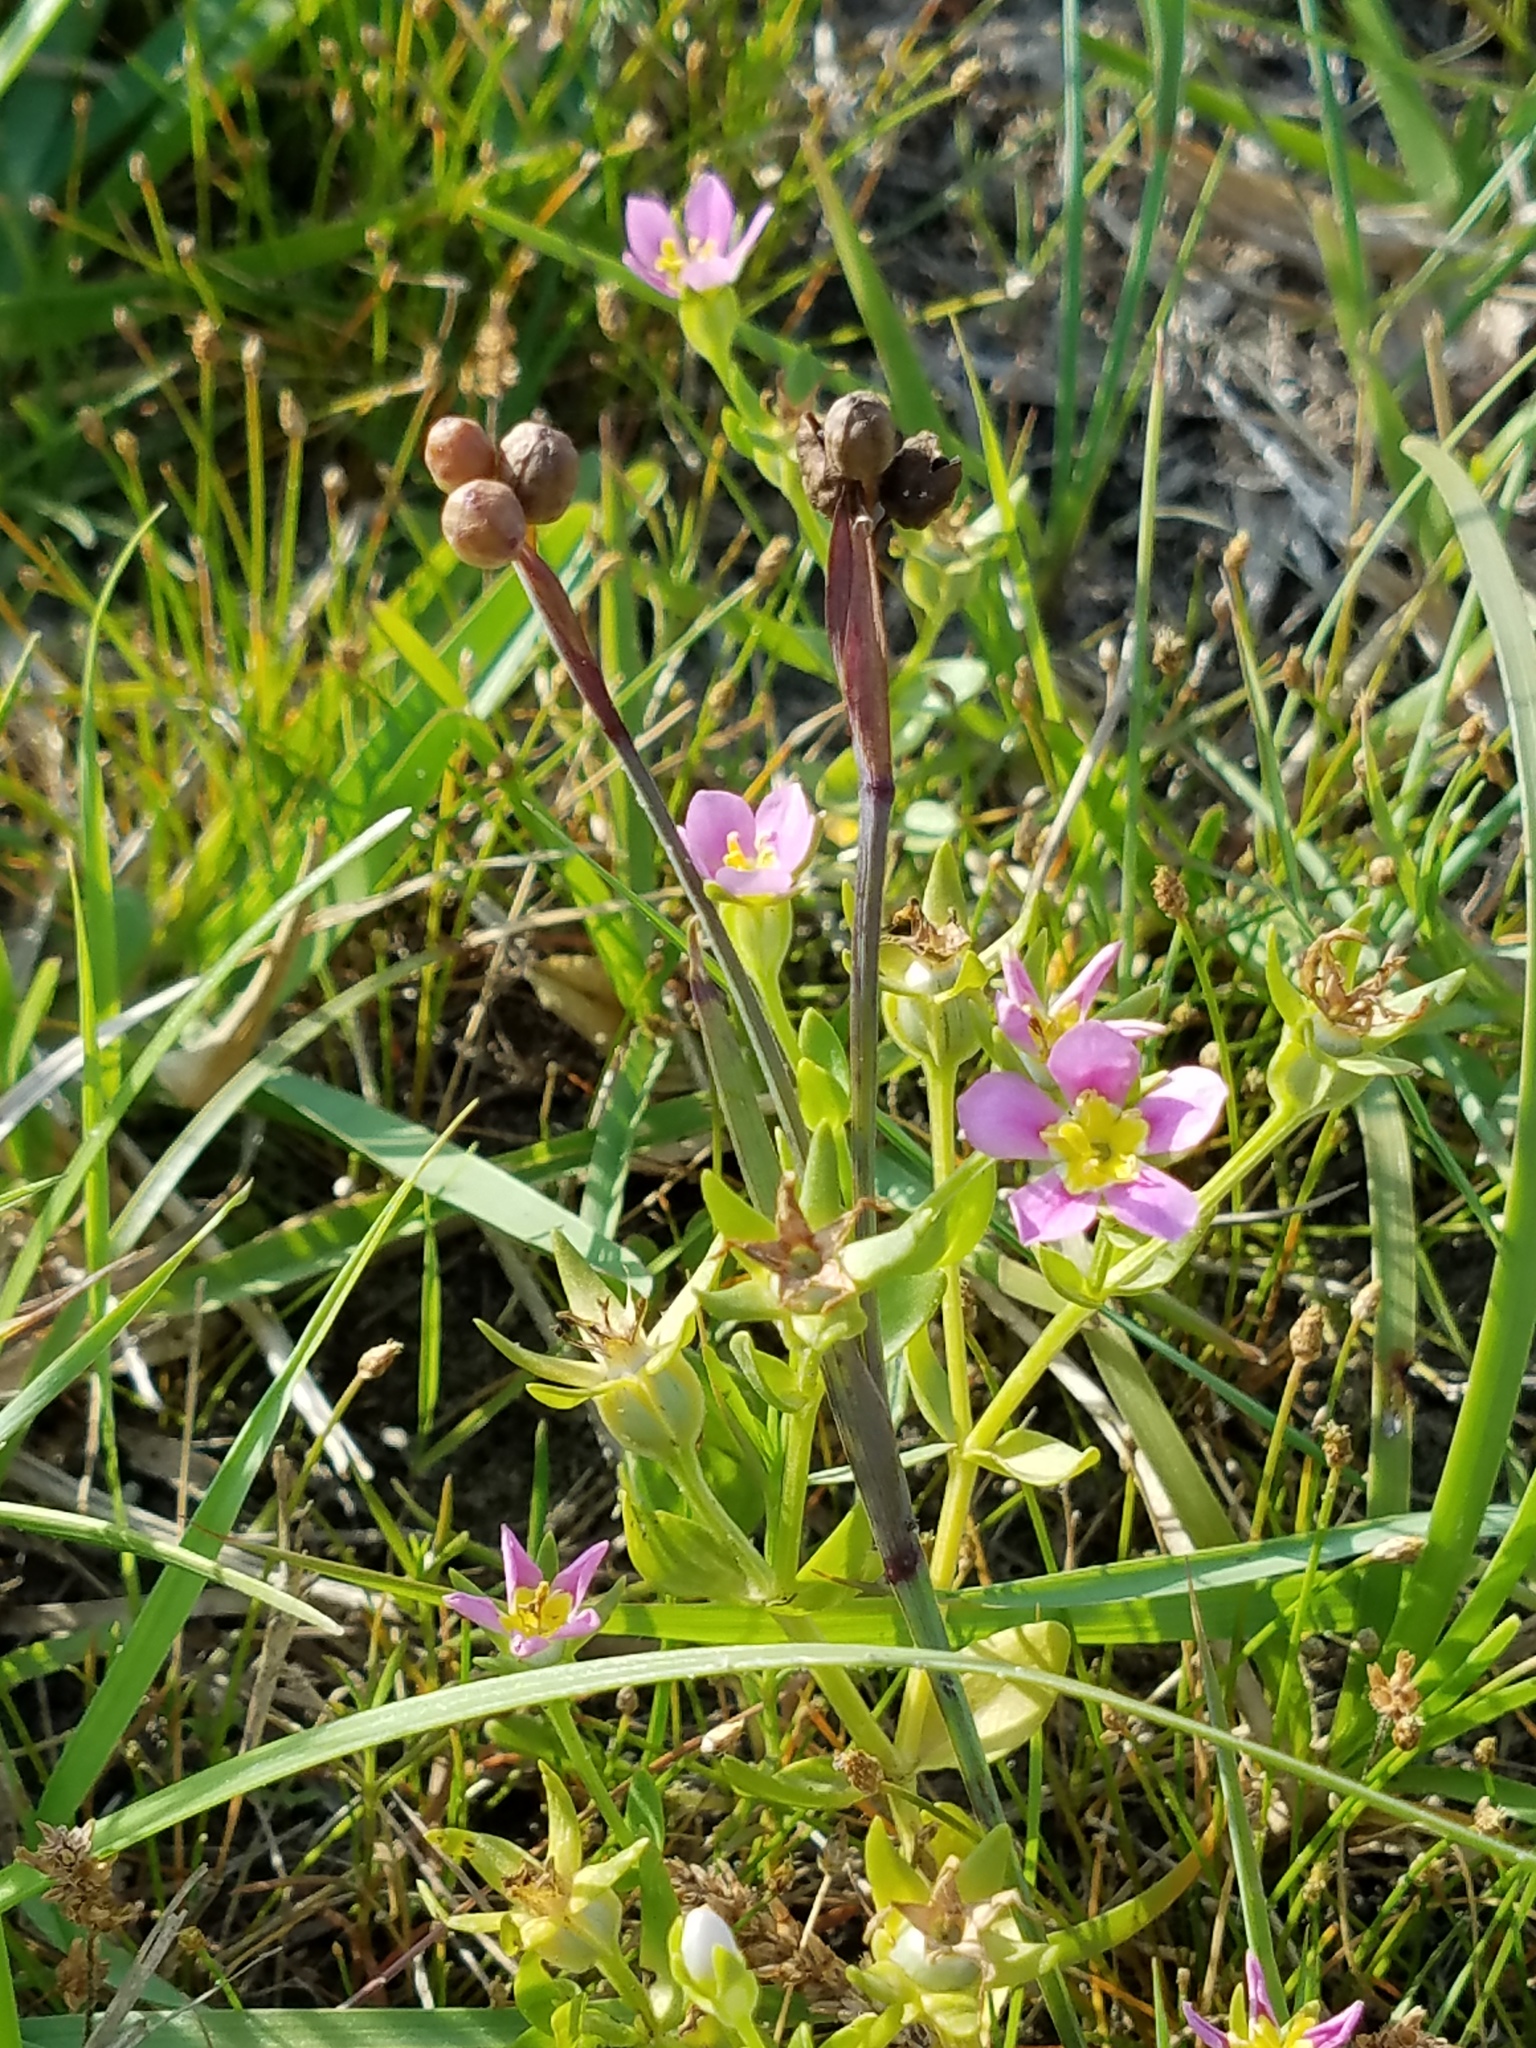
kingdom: Plantae
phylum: Tracheophyta
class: Magnoliopsida
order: Gentianales
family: Gentianaceae
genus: Sabatia
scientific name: Sabatia campestris
